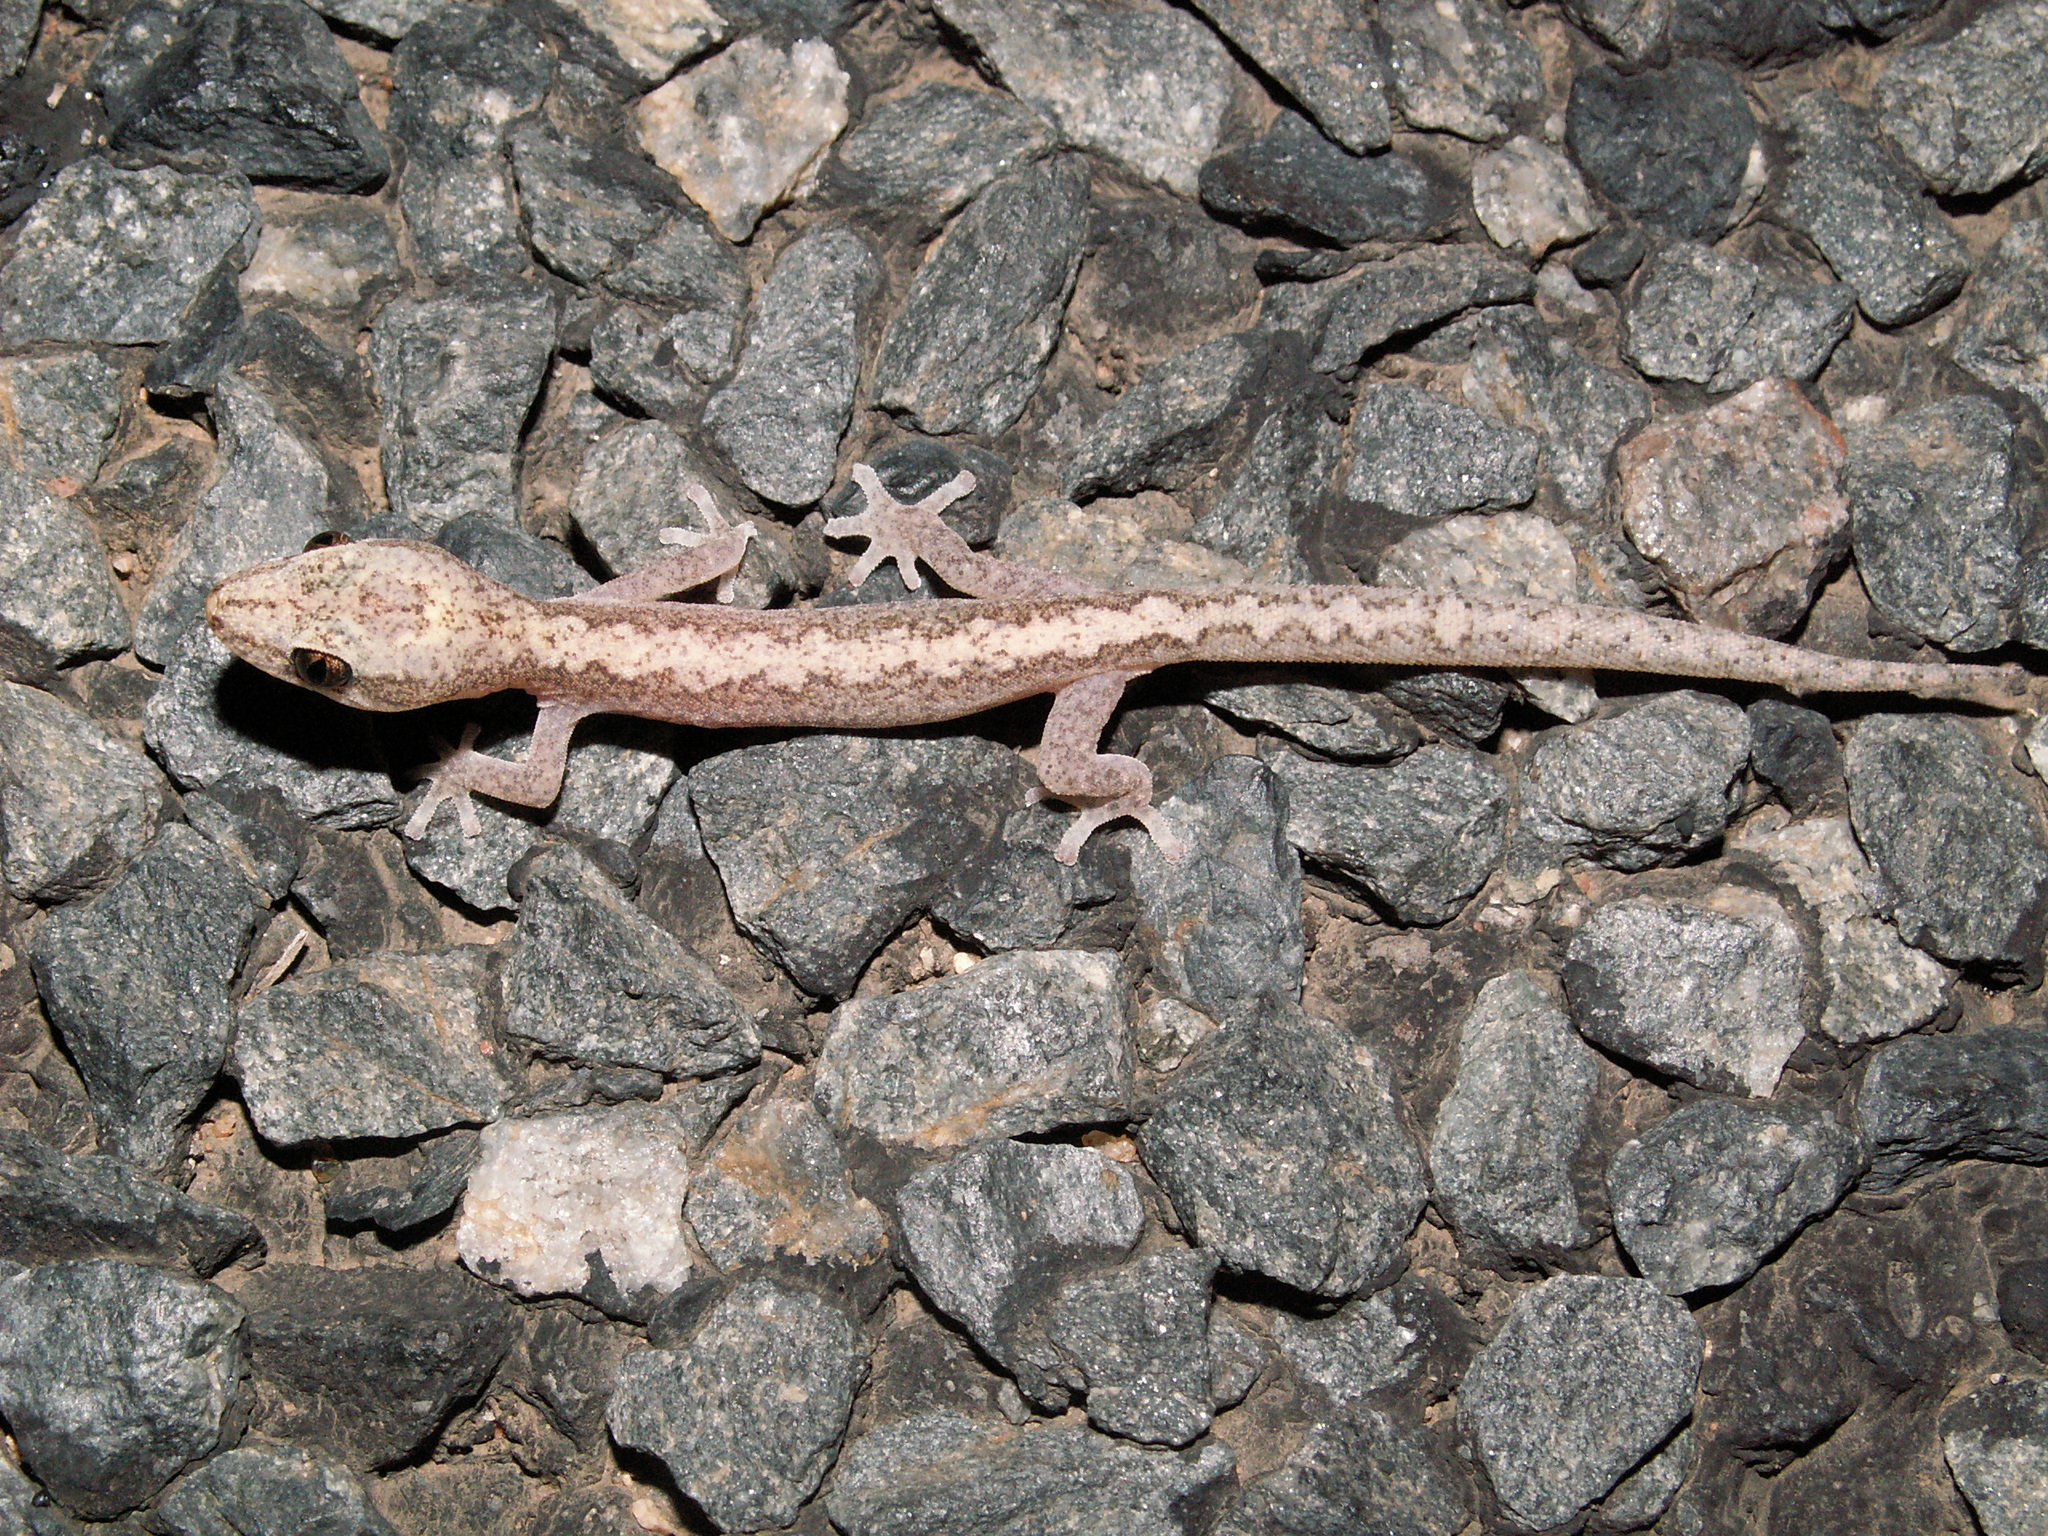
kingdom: Animalia
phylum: Chordata
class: Squamata
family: Diplodactylidae
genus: Amalosia
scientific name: Amalosia rhombifer
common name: Zig-zag gecko
